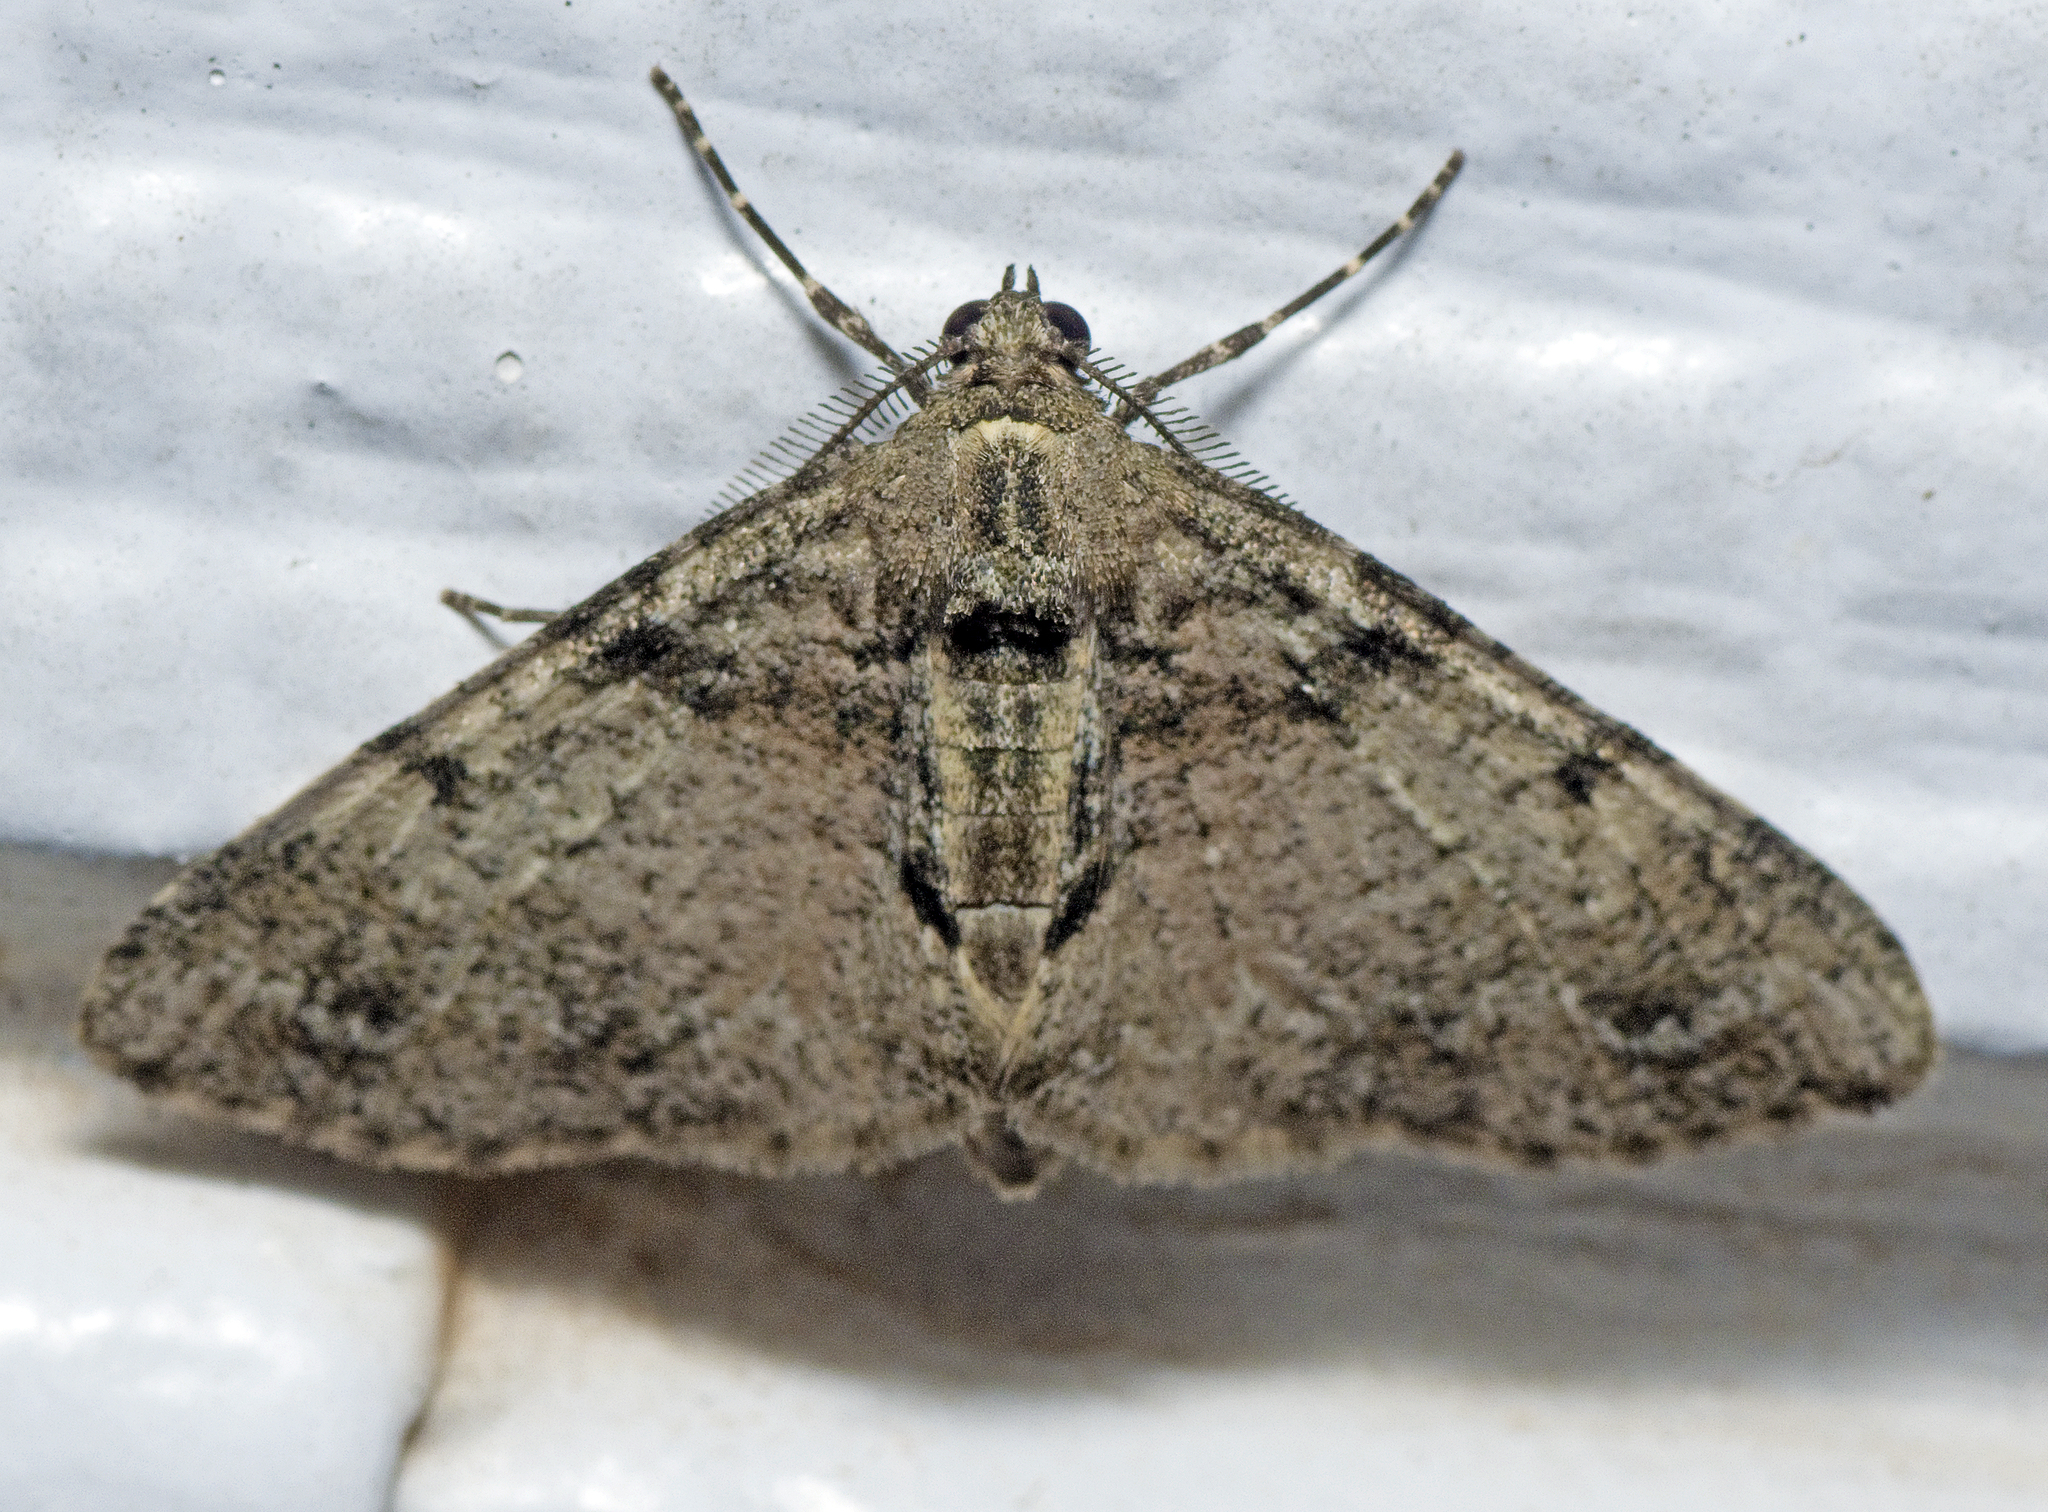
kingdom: Animalia
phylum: Arthropoda
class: Insecta
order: Lepidoptera
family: Geometridae
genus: Syneora
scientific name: Syneora adelphodes
